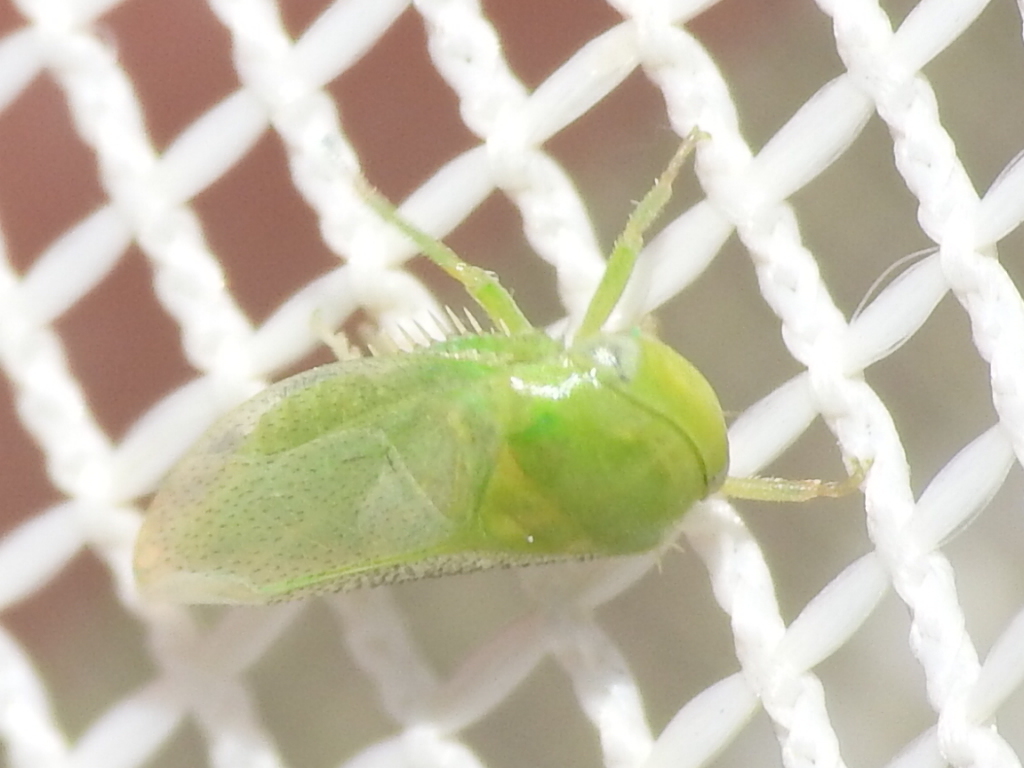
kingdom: Animalia
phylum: Arthropoda
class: Insecta
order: Hemiptera
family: Cicadellidae
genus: Penestragania
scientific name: Penestragania robusta
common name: Robust leafhopper
